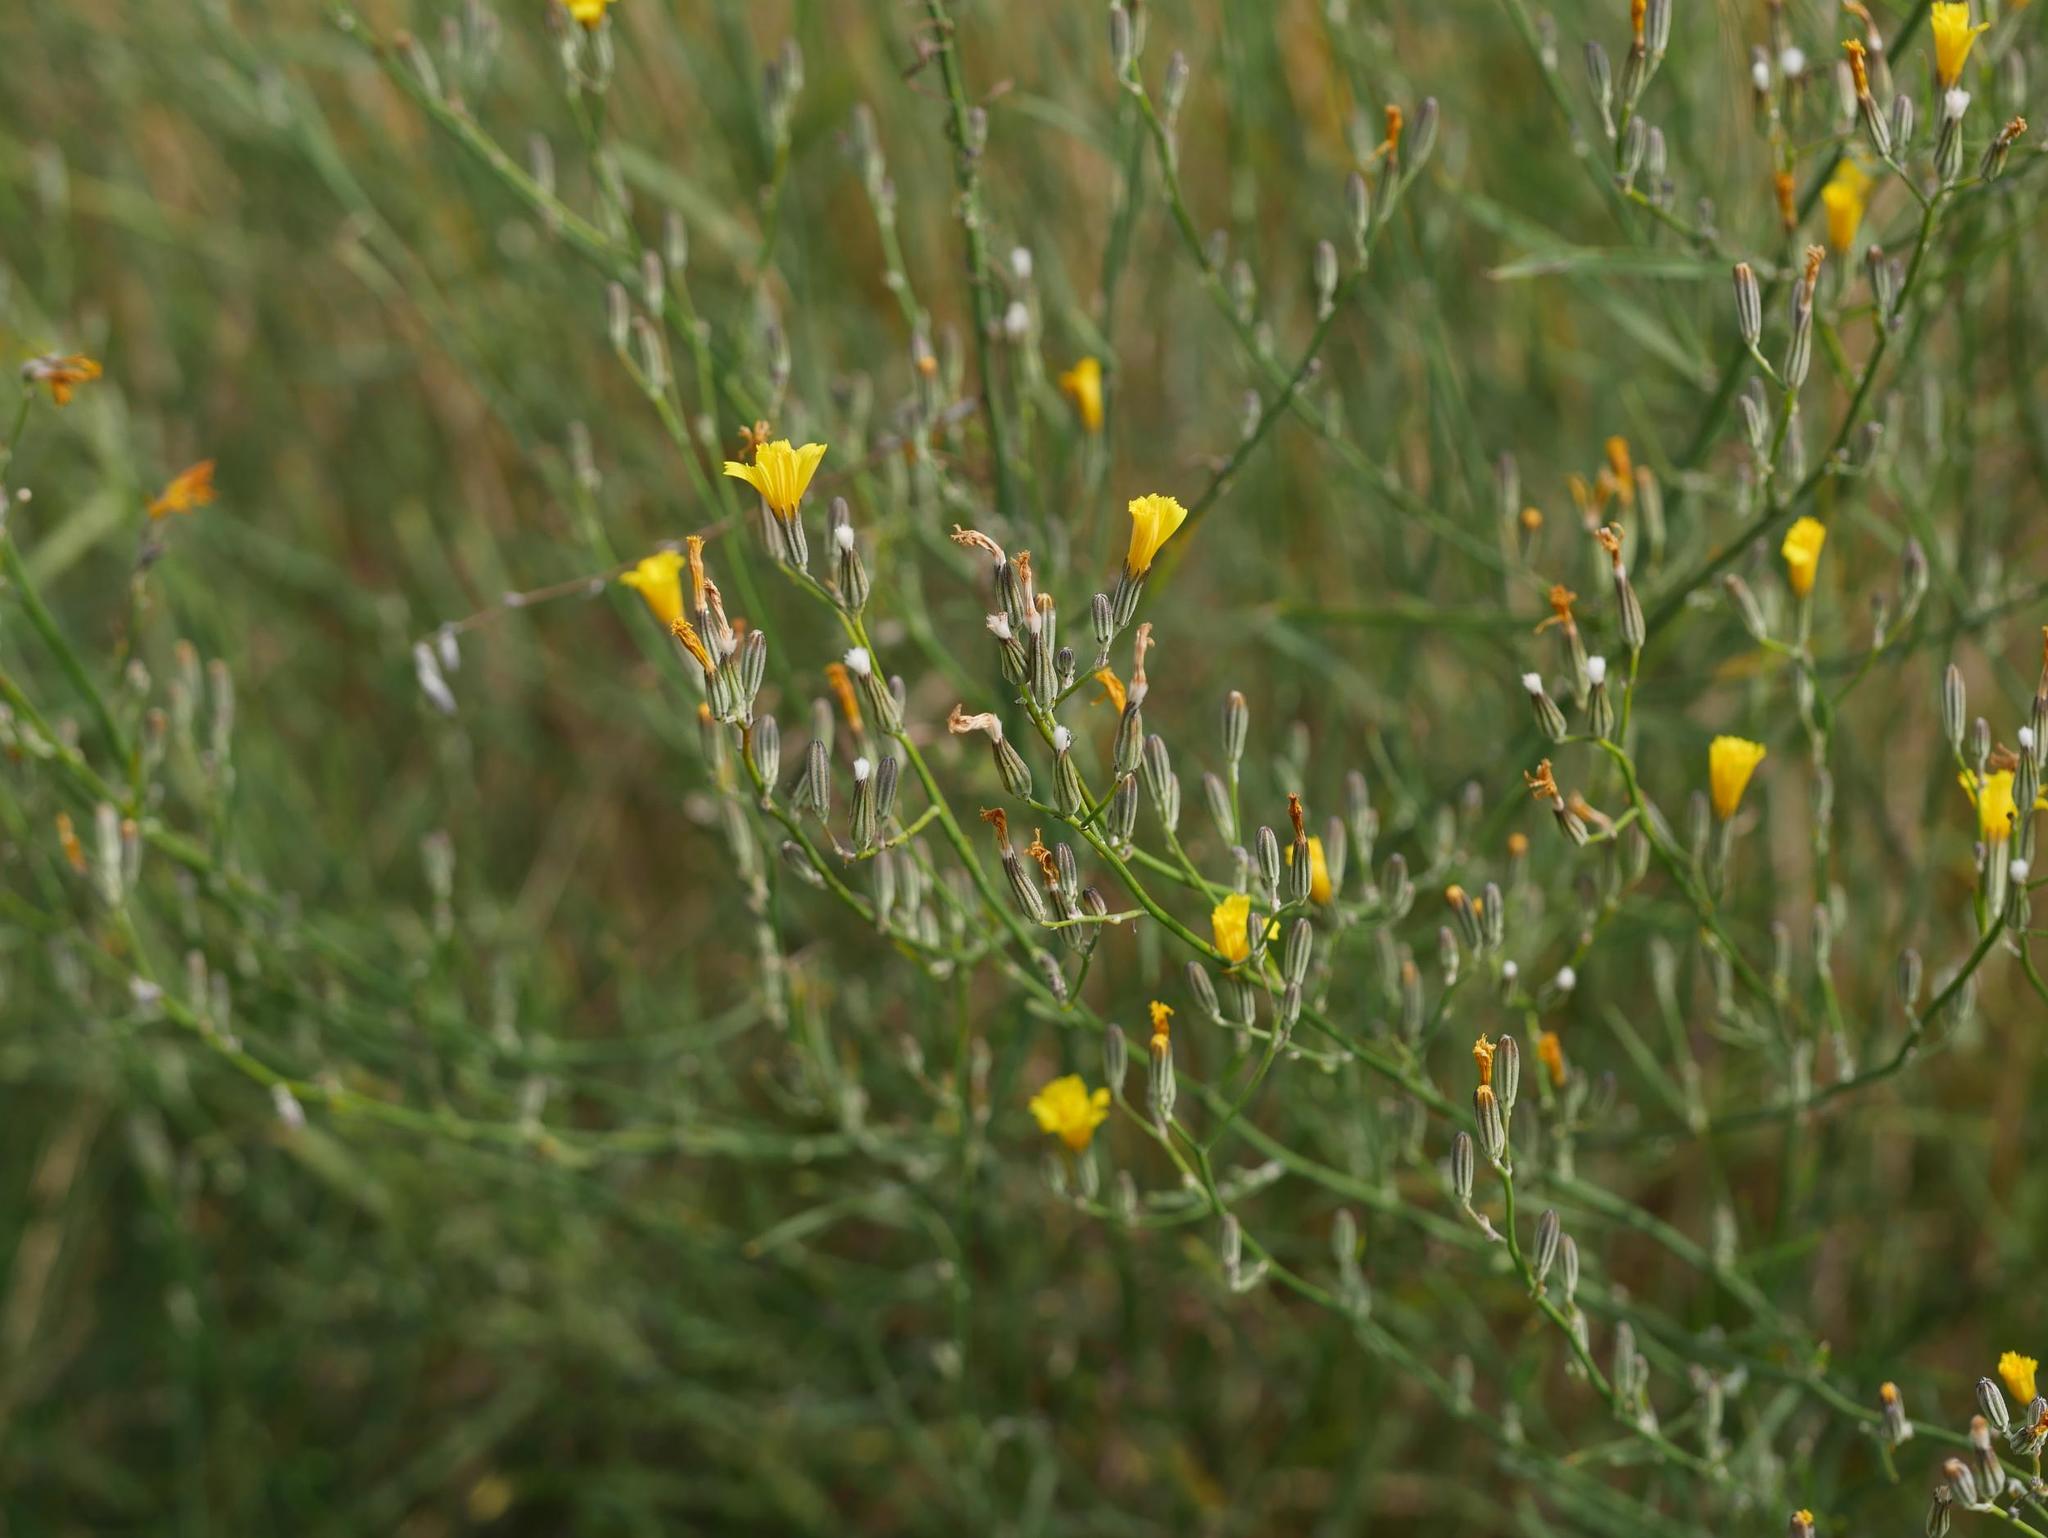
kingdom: Plantae
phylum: Tracheophyta
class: Magnoliopsida
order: Asterales
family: Asteraceae
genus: Chondrilla
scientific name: Chondrilla juncea
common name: Skeleton weed
